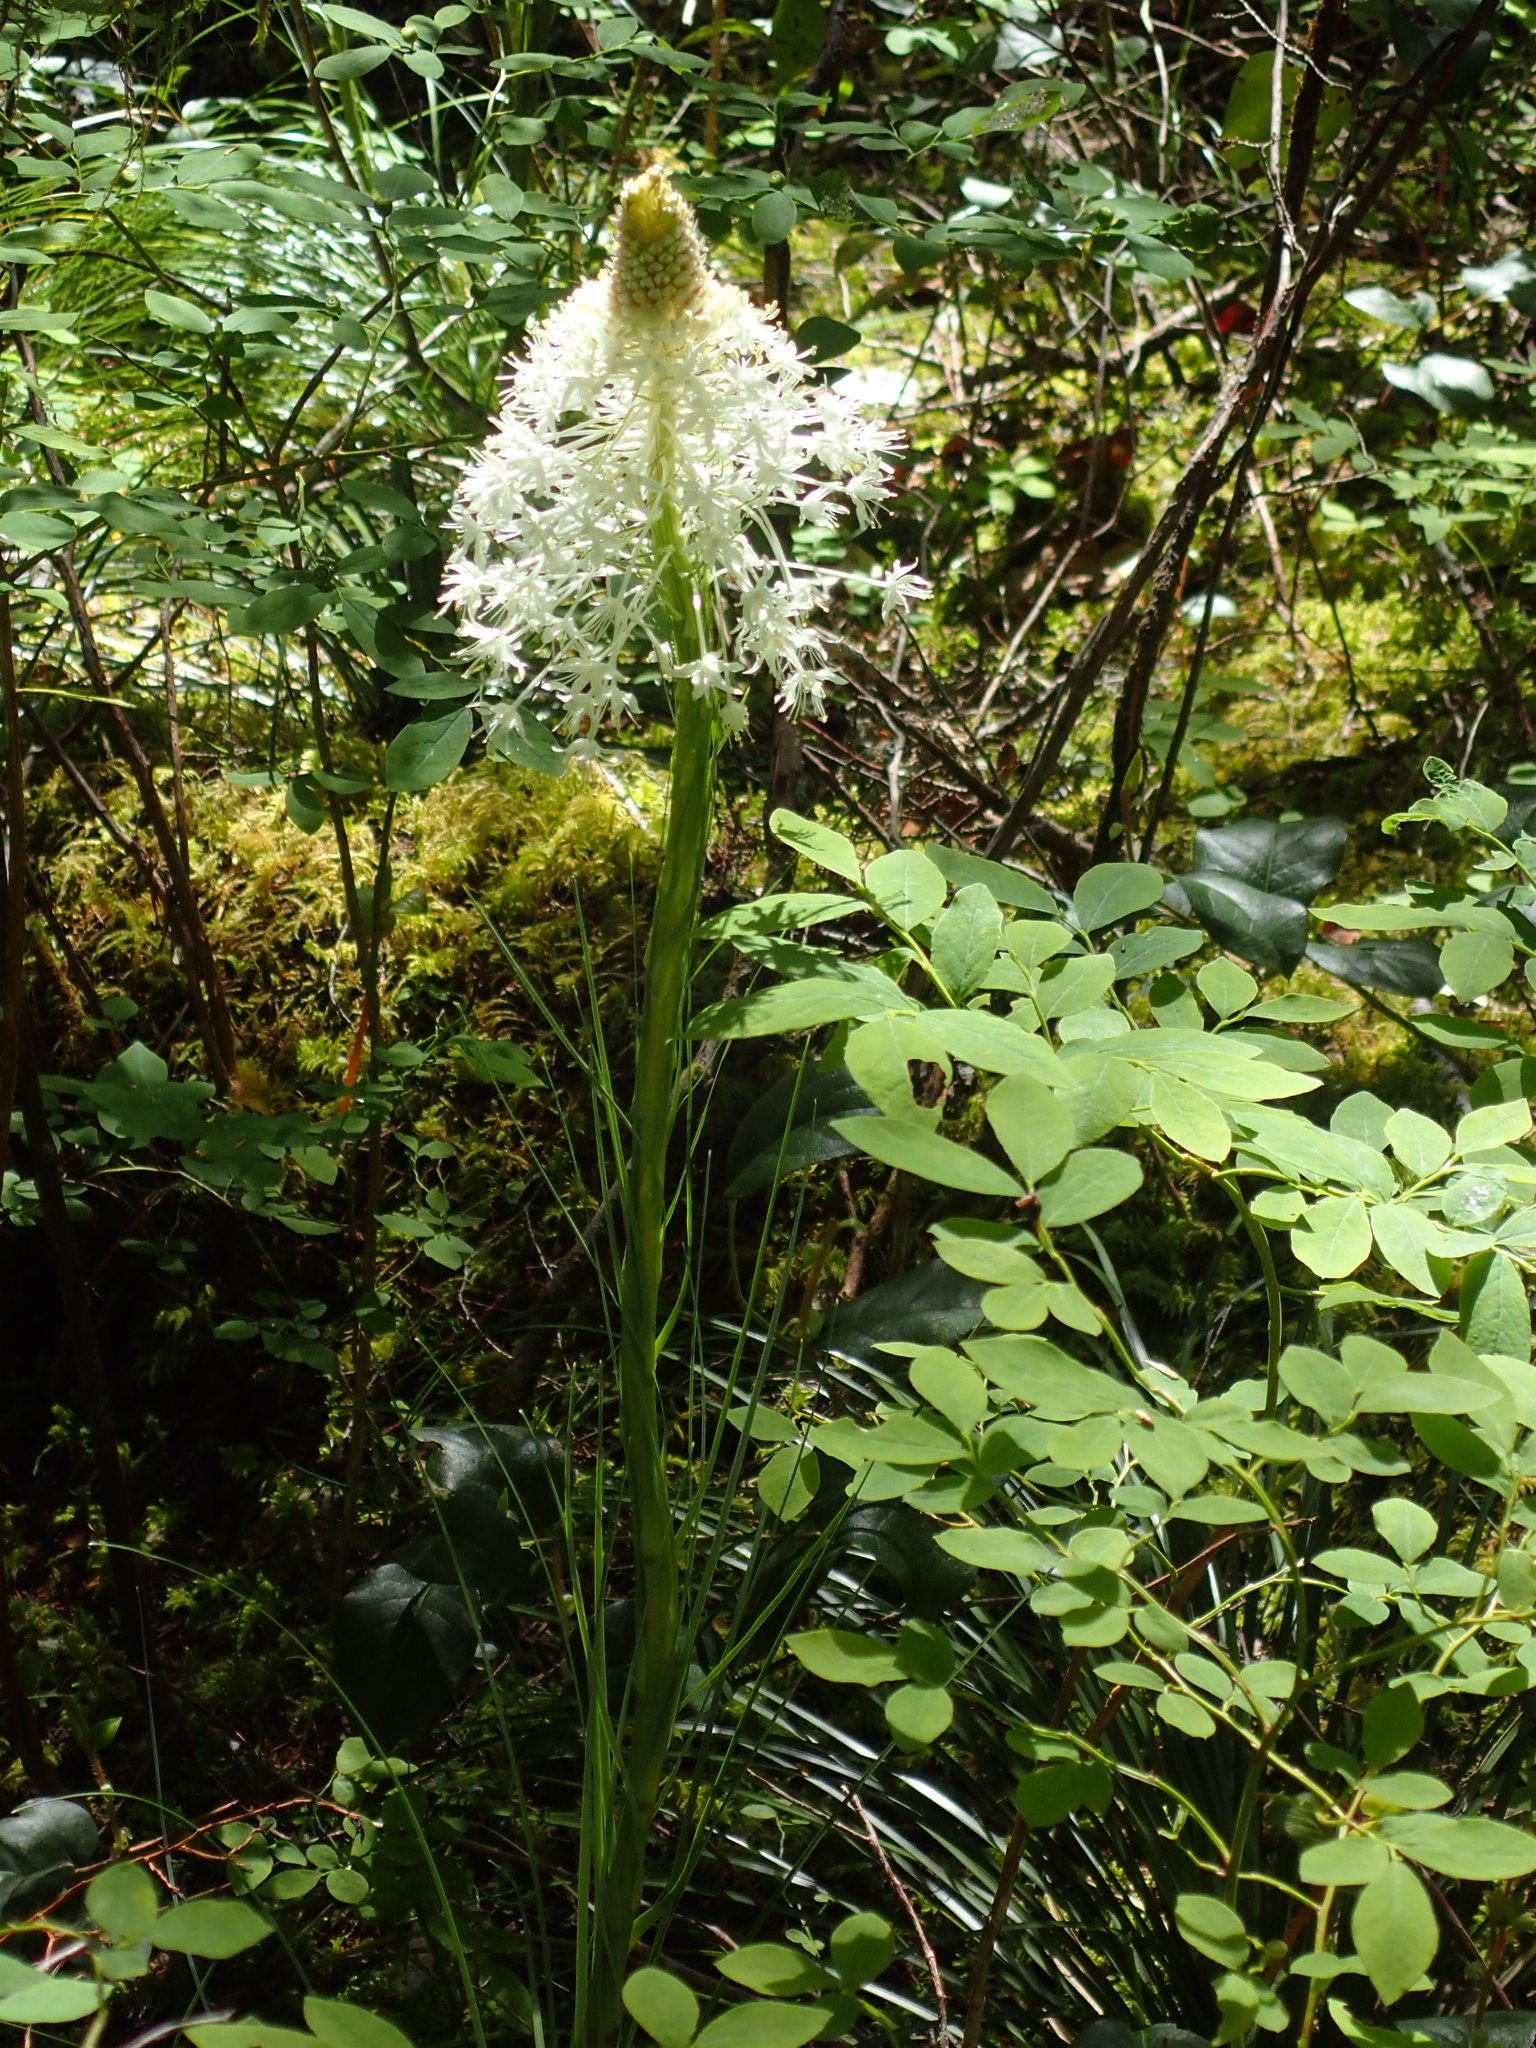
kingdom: Plantae
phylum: Tracheophyta
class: Liliopsida
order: Liliales
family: Melanthiaceae
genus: Xerophyllum
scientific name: Xerophyllum tenax
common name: Bear-grass
